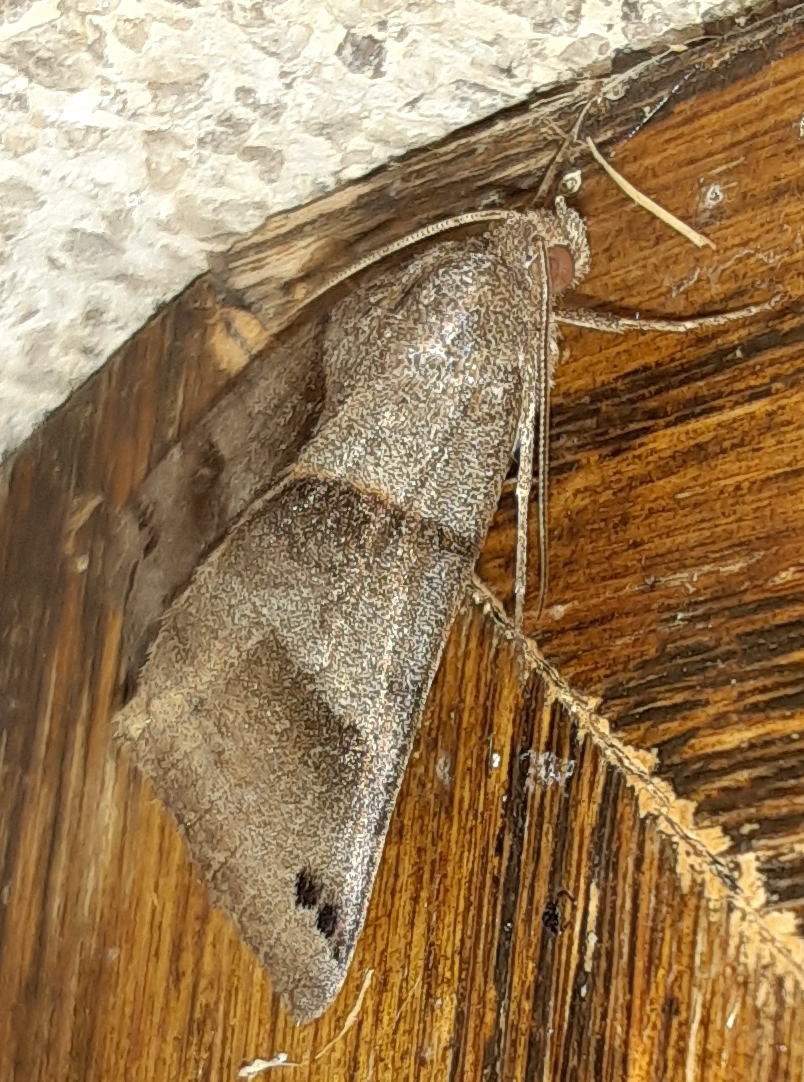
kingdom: Animalia
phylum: Arthropoda
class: Insecta
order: Lepidoptera
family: Erebidae
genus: Caenurgina
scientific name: Caenurgina crassiuscula
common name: Double-barred
